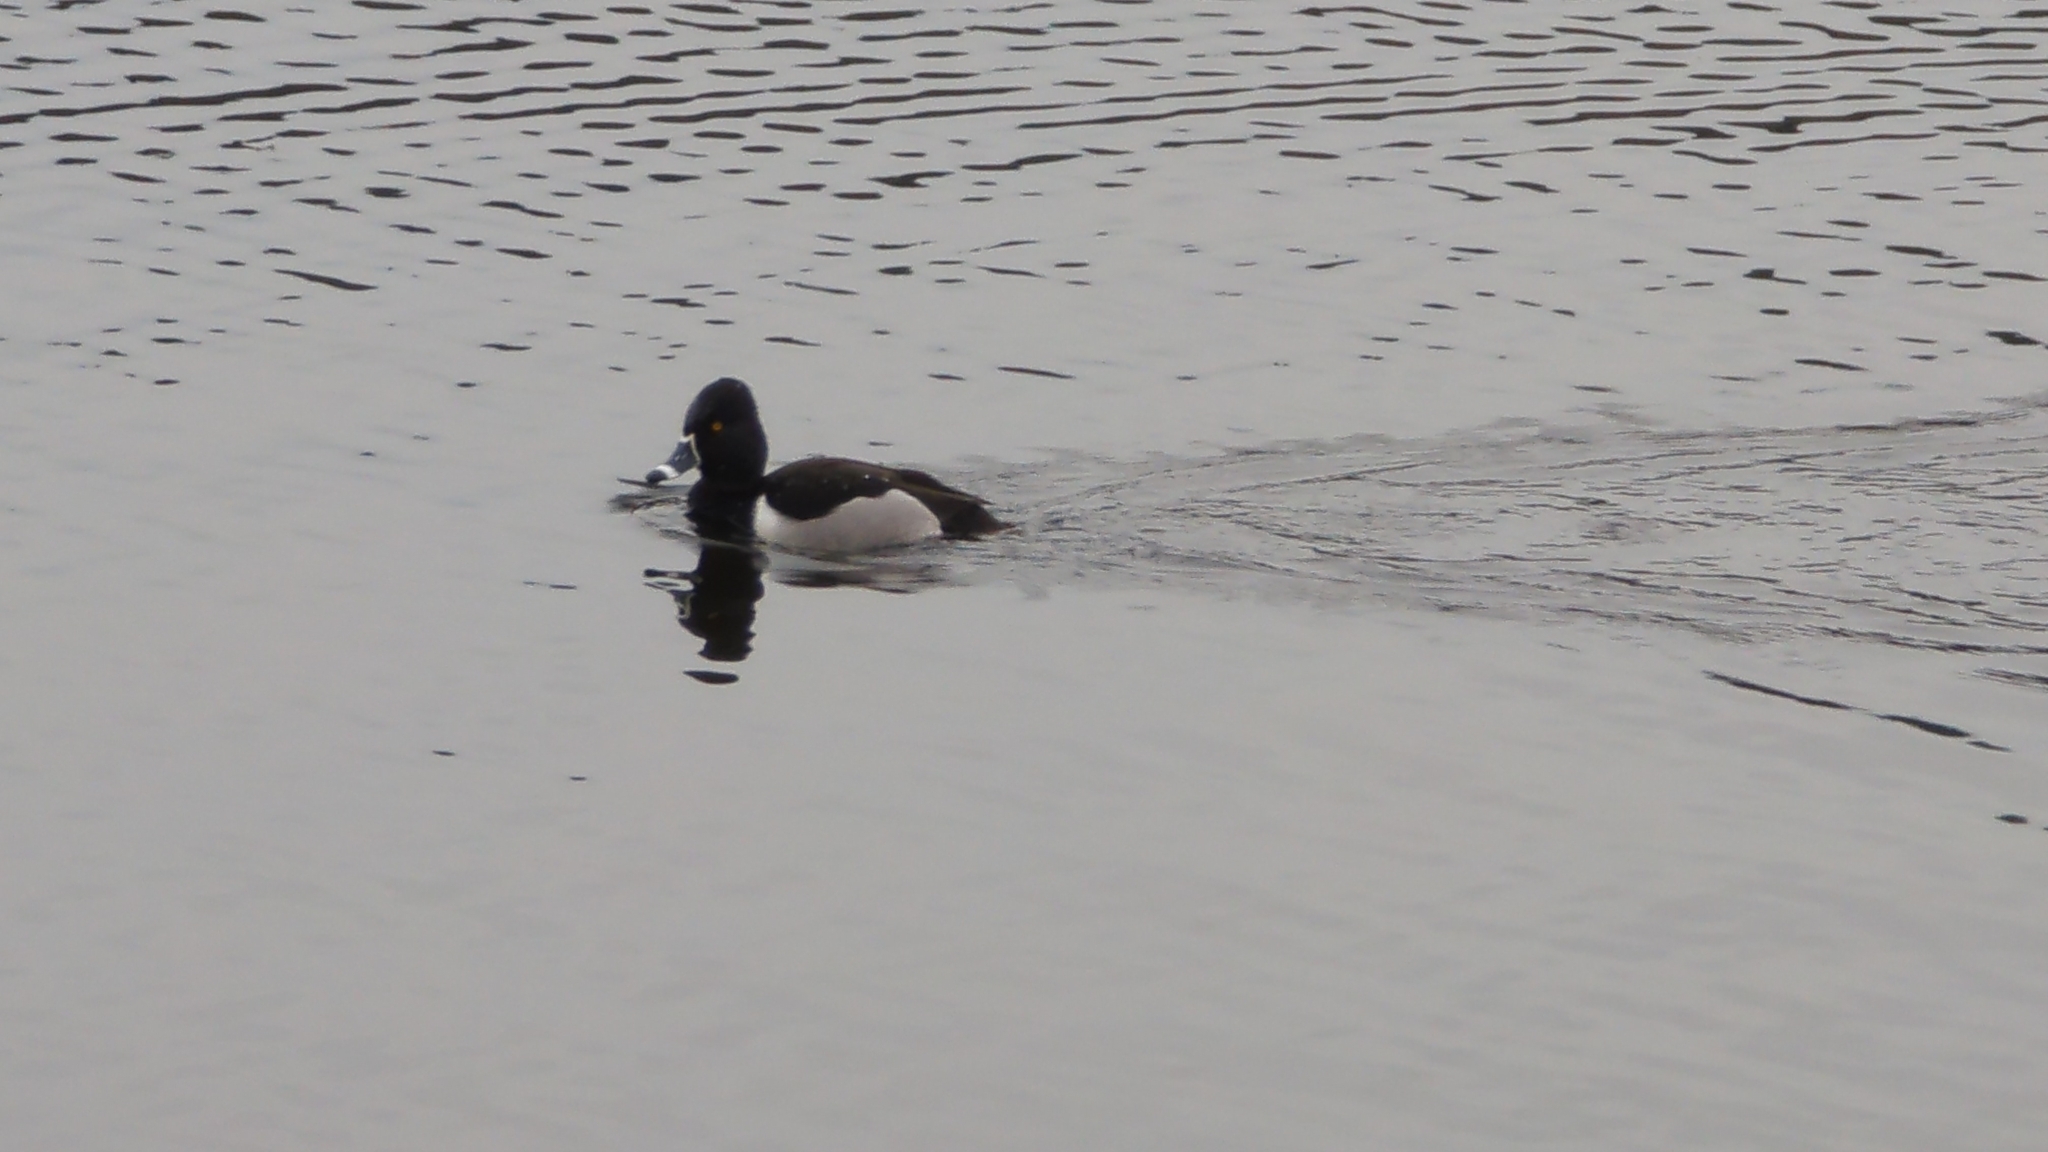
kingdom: Animalia
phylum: Chordata
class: Aves
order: Anseriformes
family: Anatidae
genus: Aythya
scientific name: Aythya collaris
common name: Ring-necked duck
